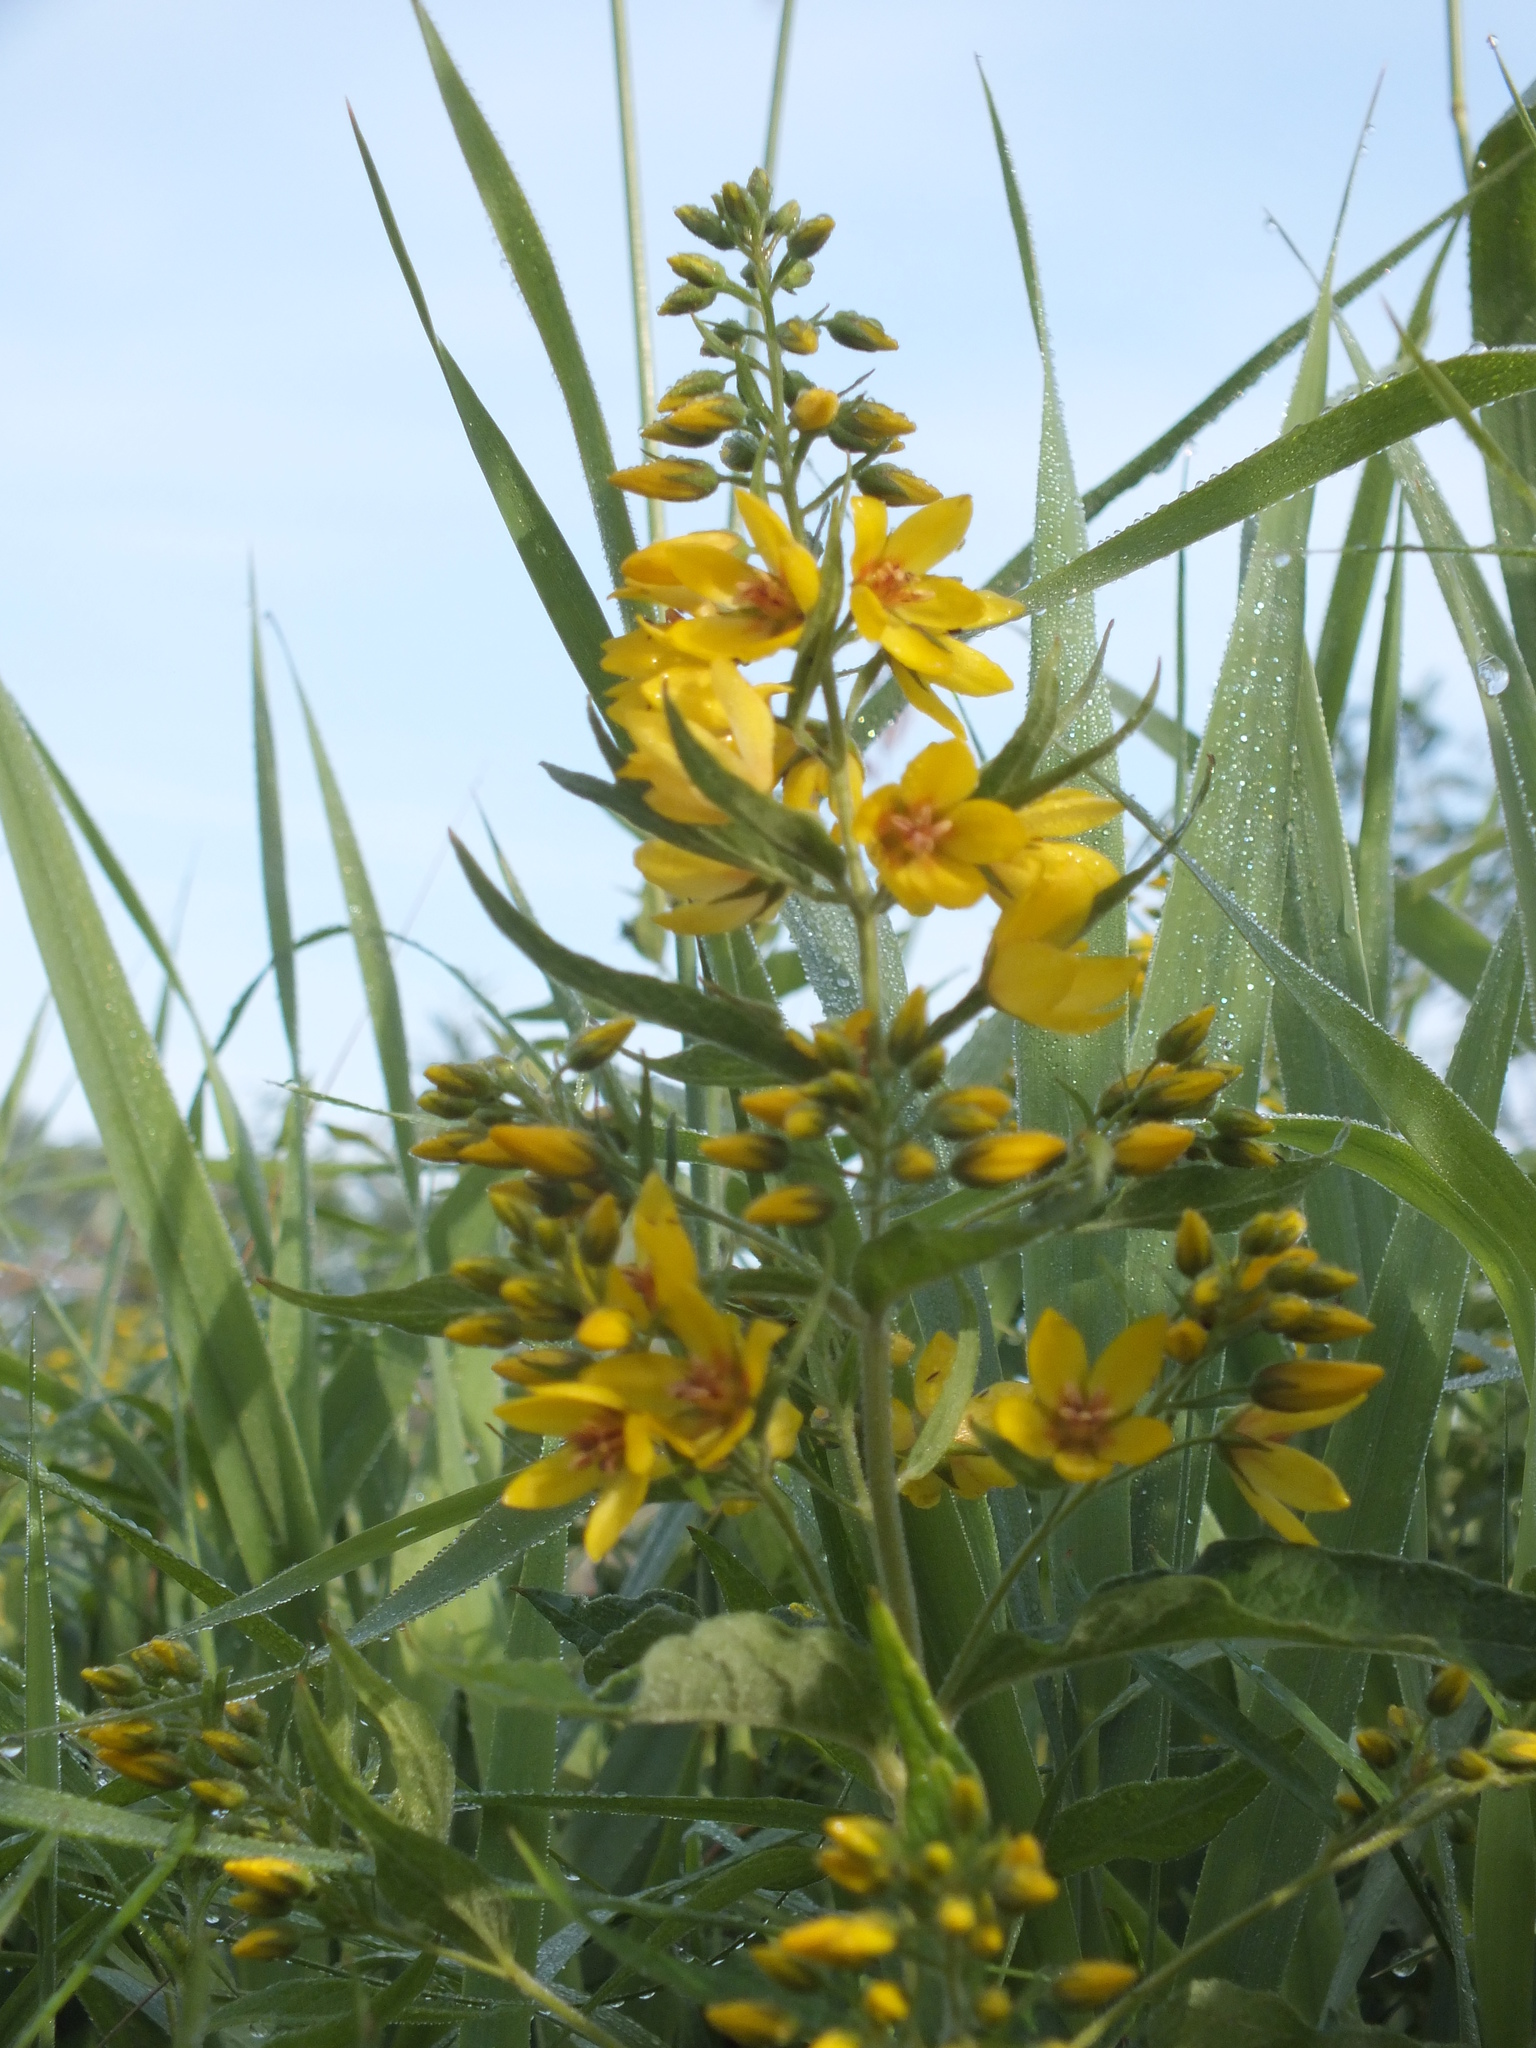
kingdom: Plantae
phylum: Tracheophyta
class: Magnoliopsida
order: Ericales
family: Primulaceae
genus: Lysimachia
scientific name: Lysimachia vulgaris
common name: Yellow loosestrife
